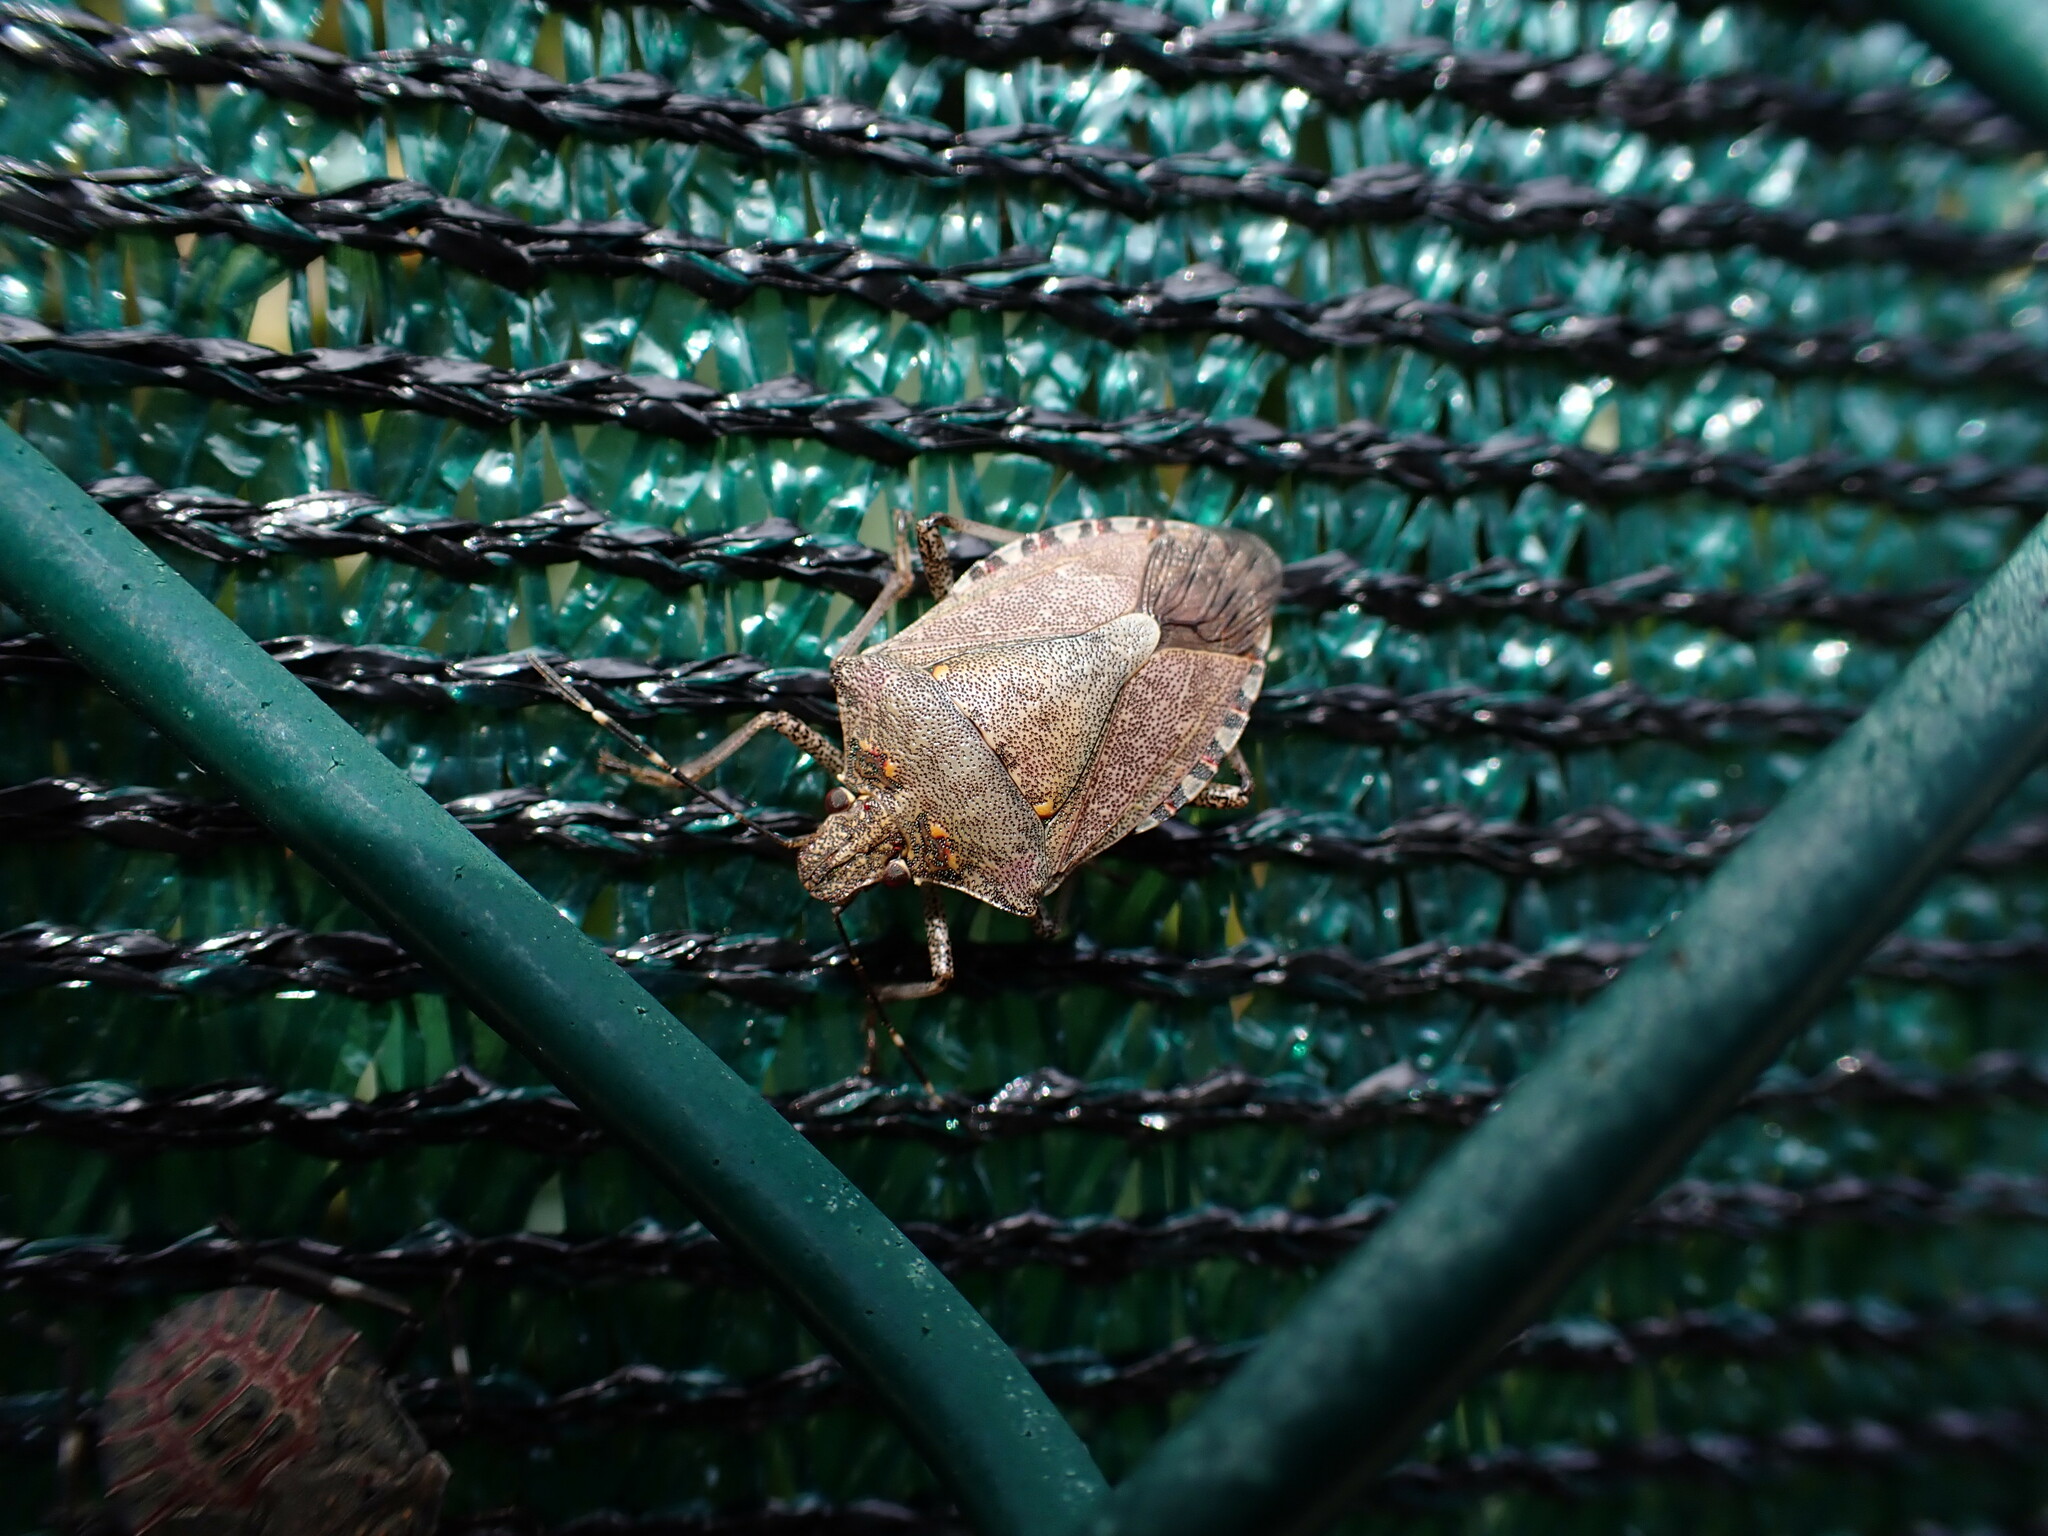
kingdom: Animalia
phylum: Arthropoda
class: Insecta
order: Hemiptera
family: Pentatomidae
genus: Halyomorpha
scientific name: Halyomorpha halys
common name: Brown marmorated stink bug
